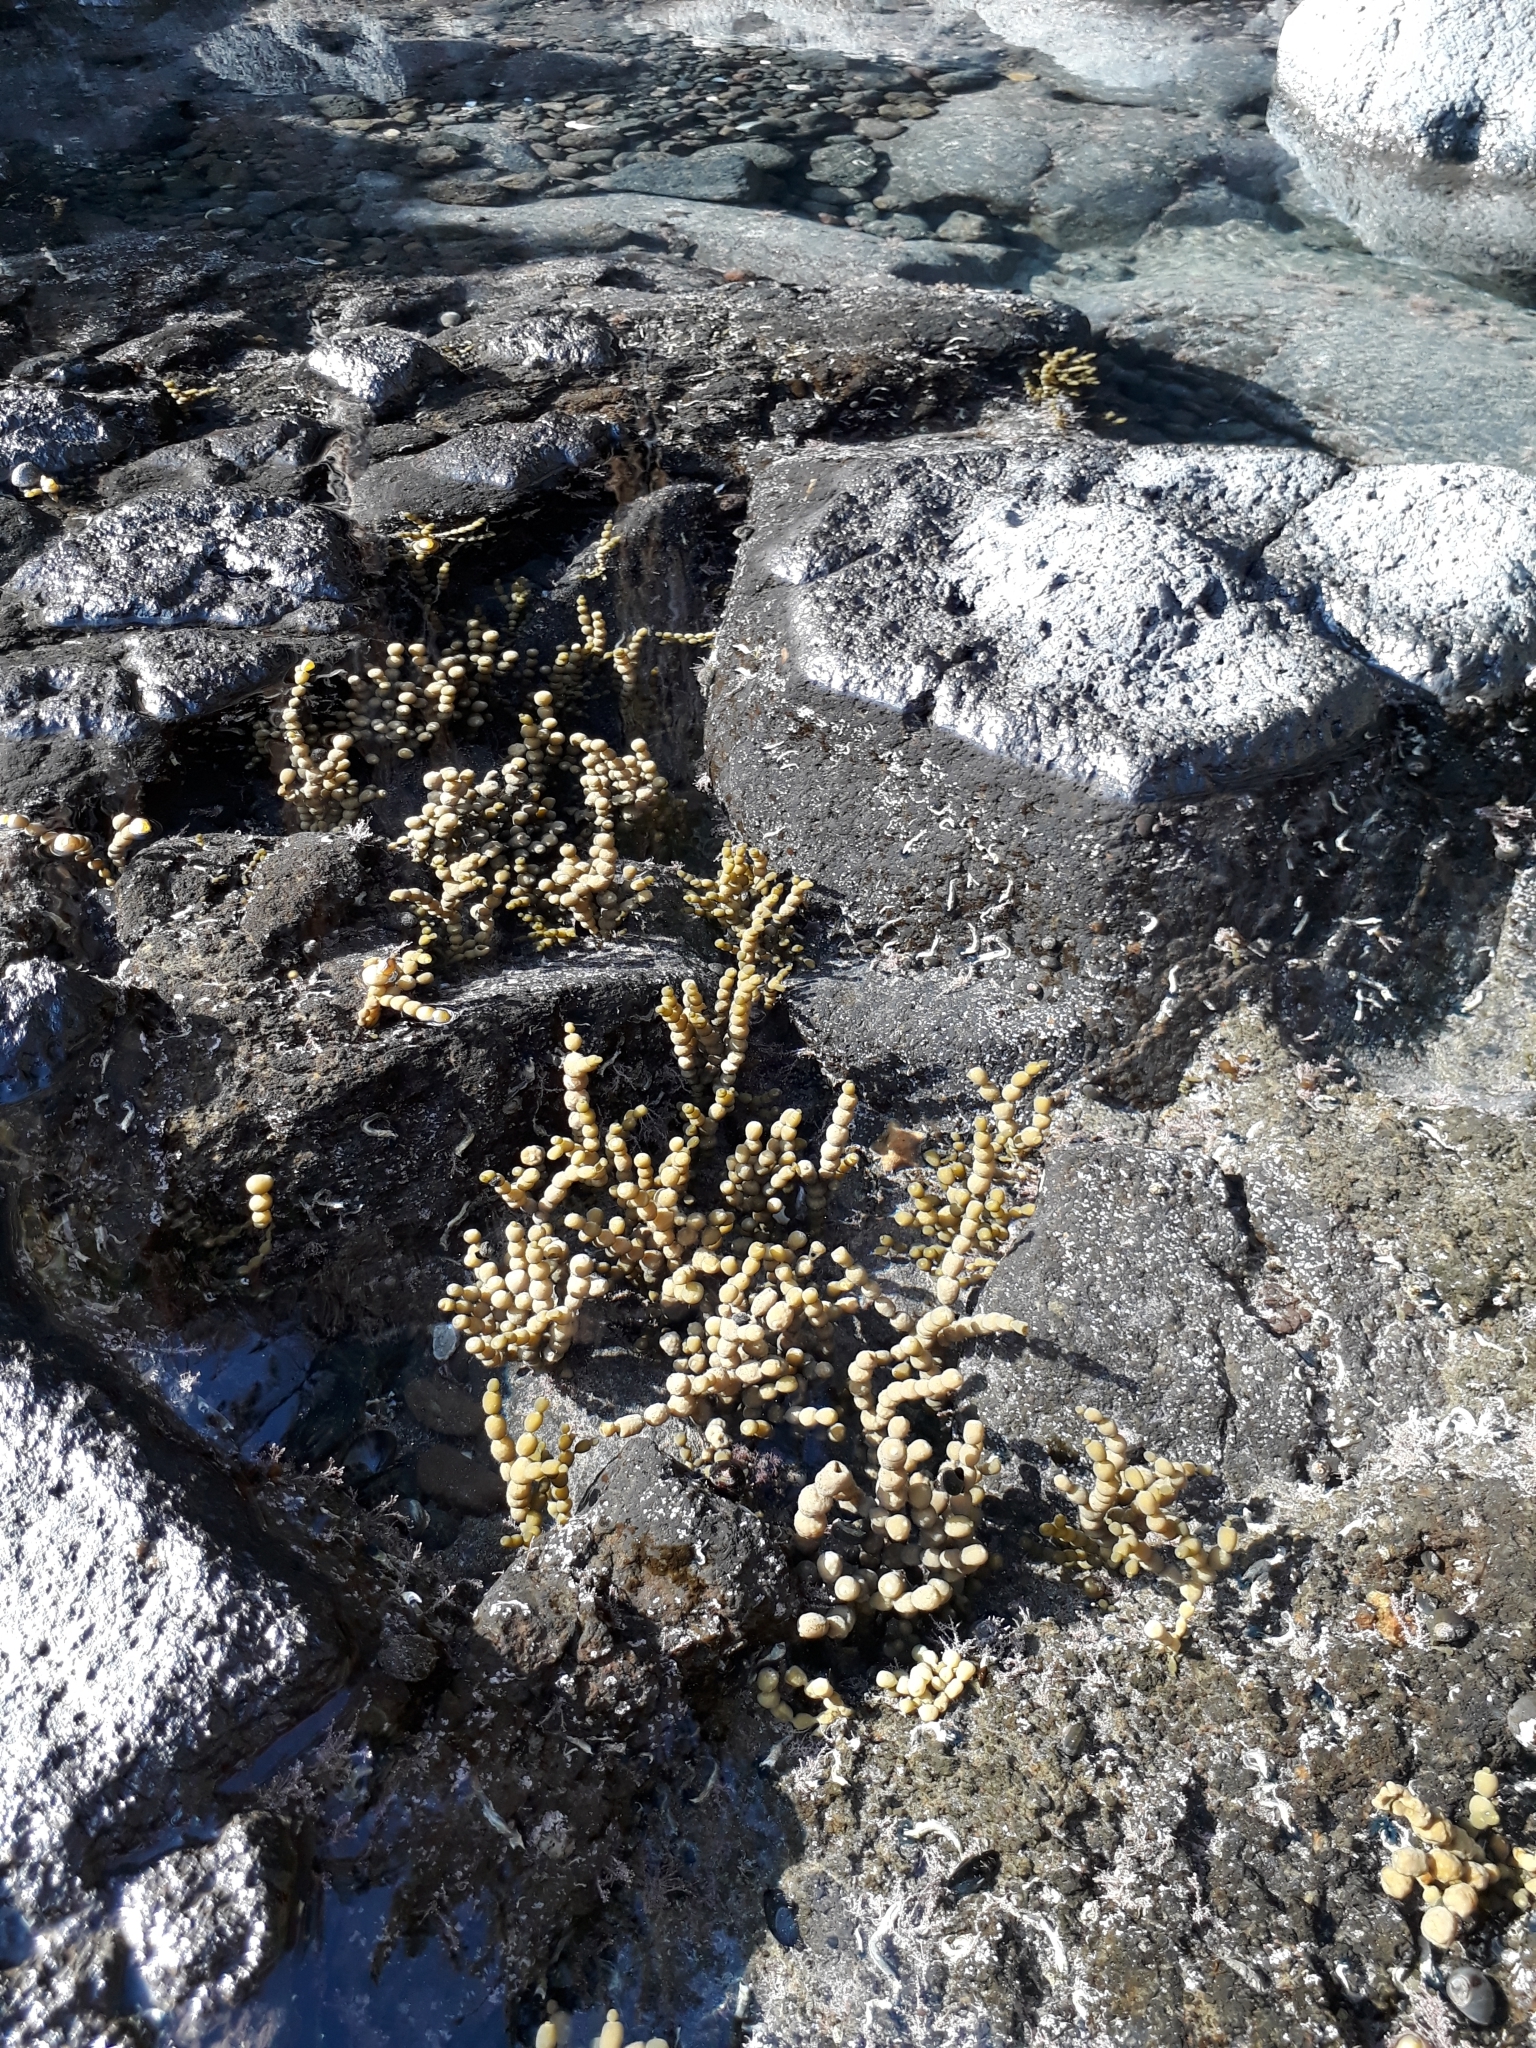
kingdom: Chromista
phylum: Ochrophyta
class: Phaeophyceae
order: Fucales
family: Hormosiraceae
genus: Hormosira
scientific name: Hormosira banksii
